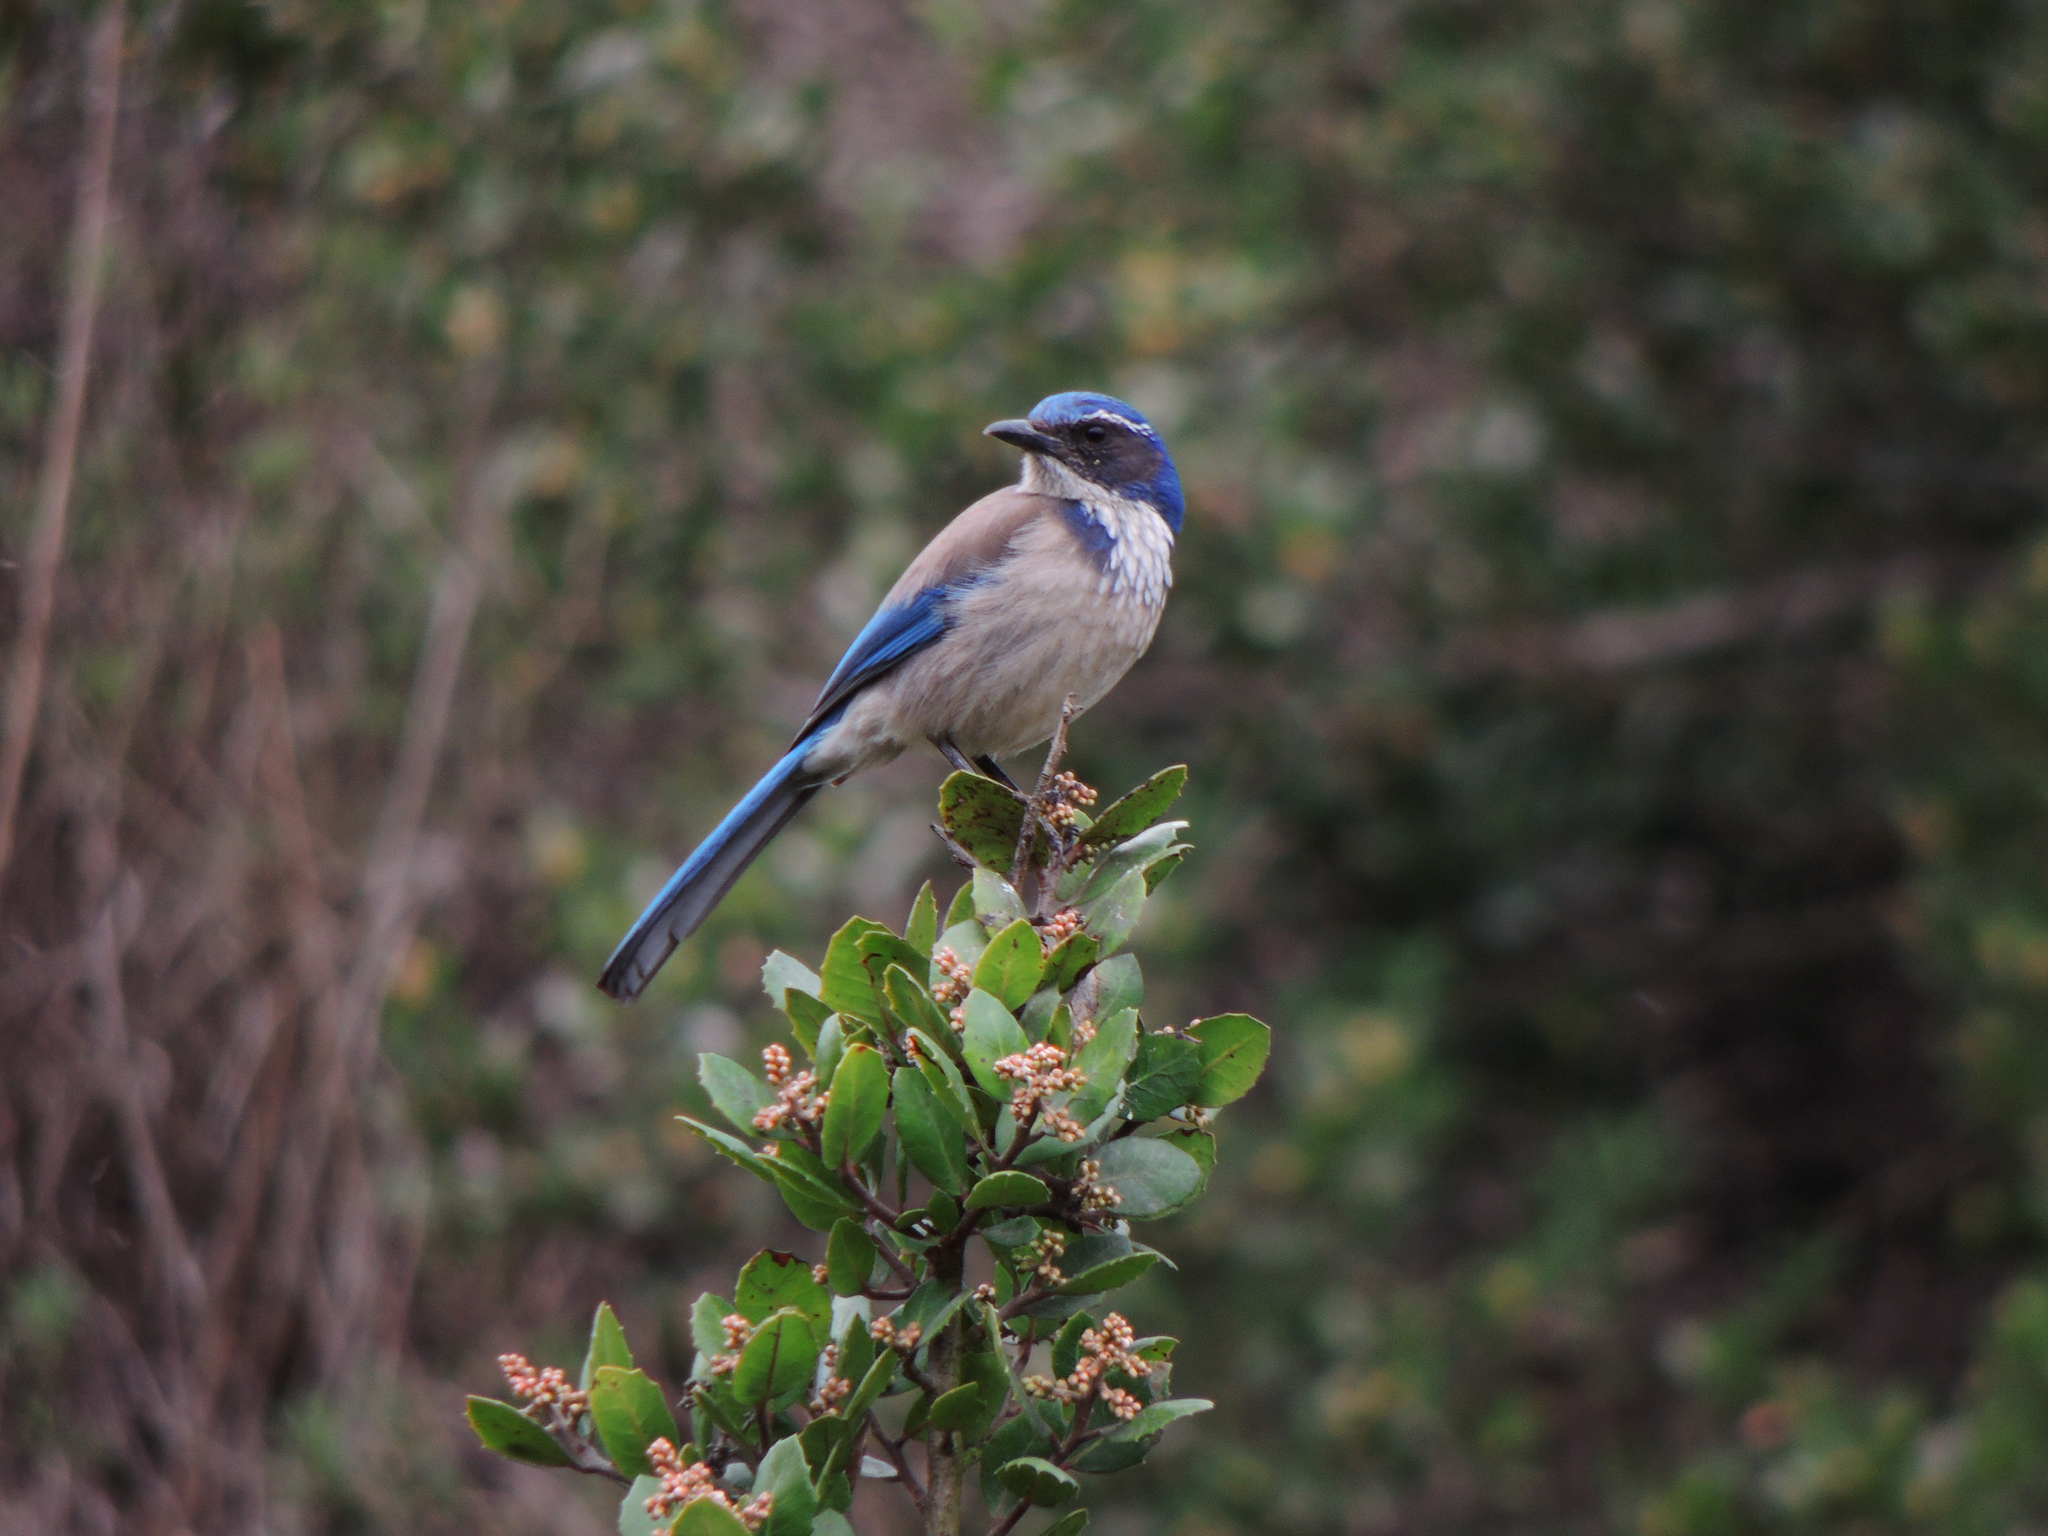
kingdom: Animalia
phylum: Chordata
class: Aves
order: Passeriformes
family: Corvidae
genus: Aphelocoma
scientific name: Aphelocoma californica
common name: California scrub-jay
